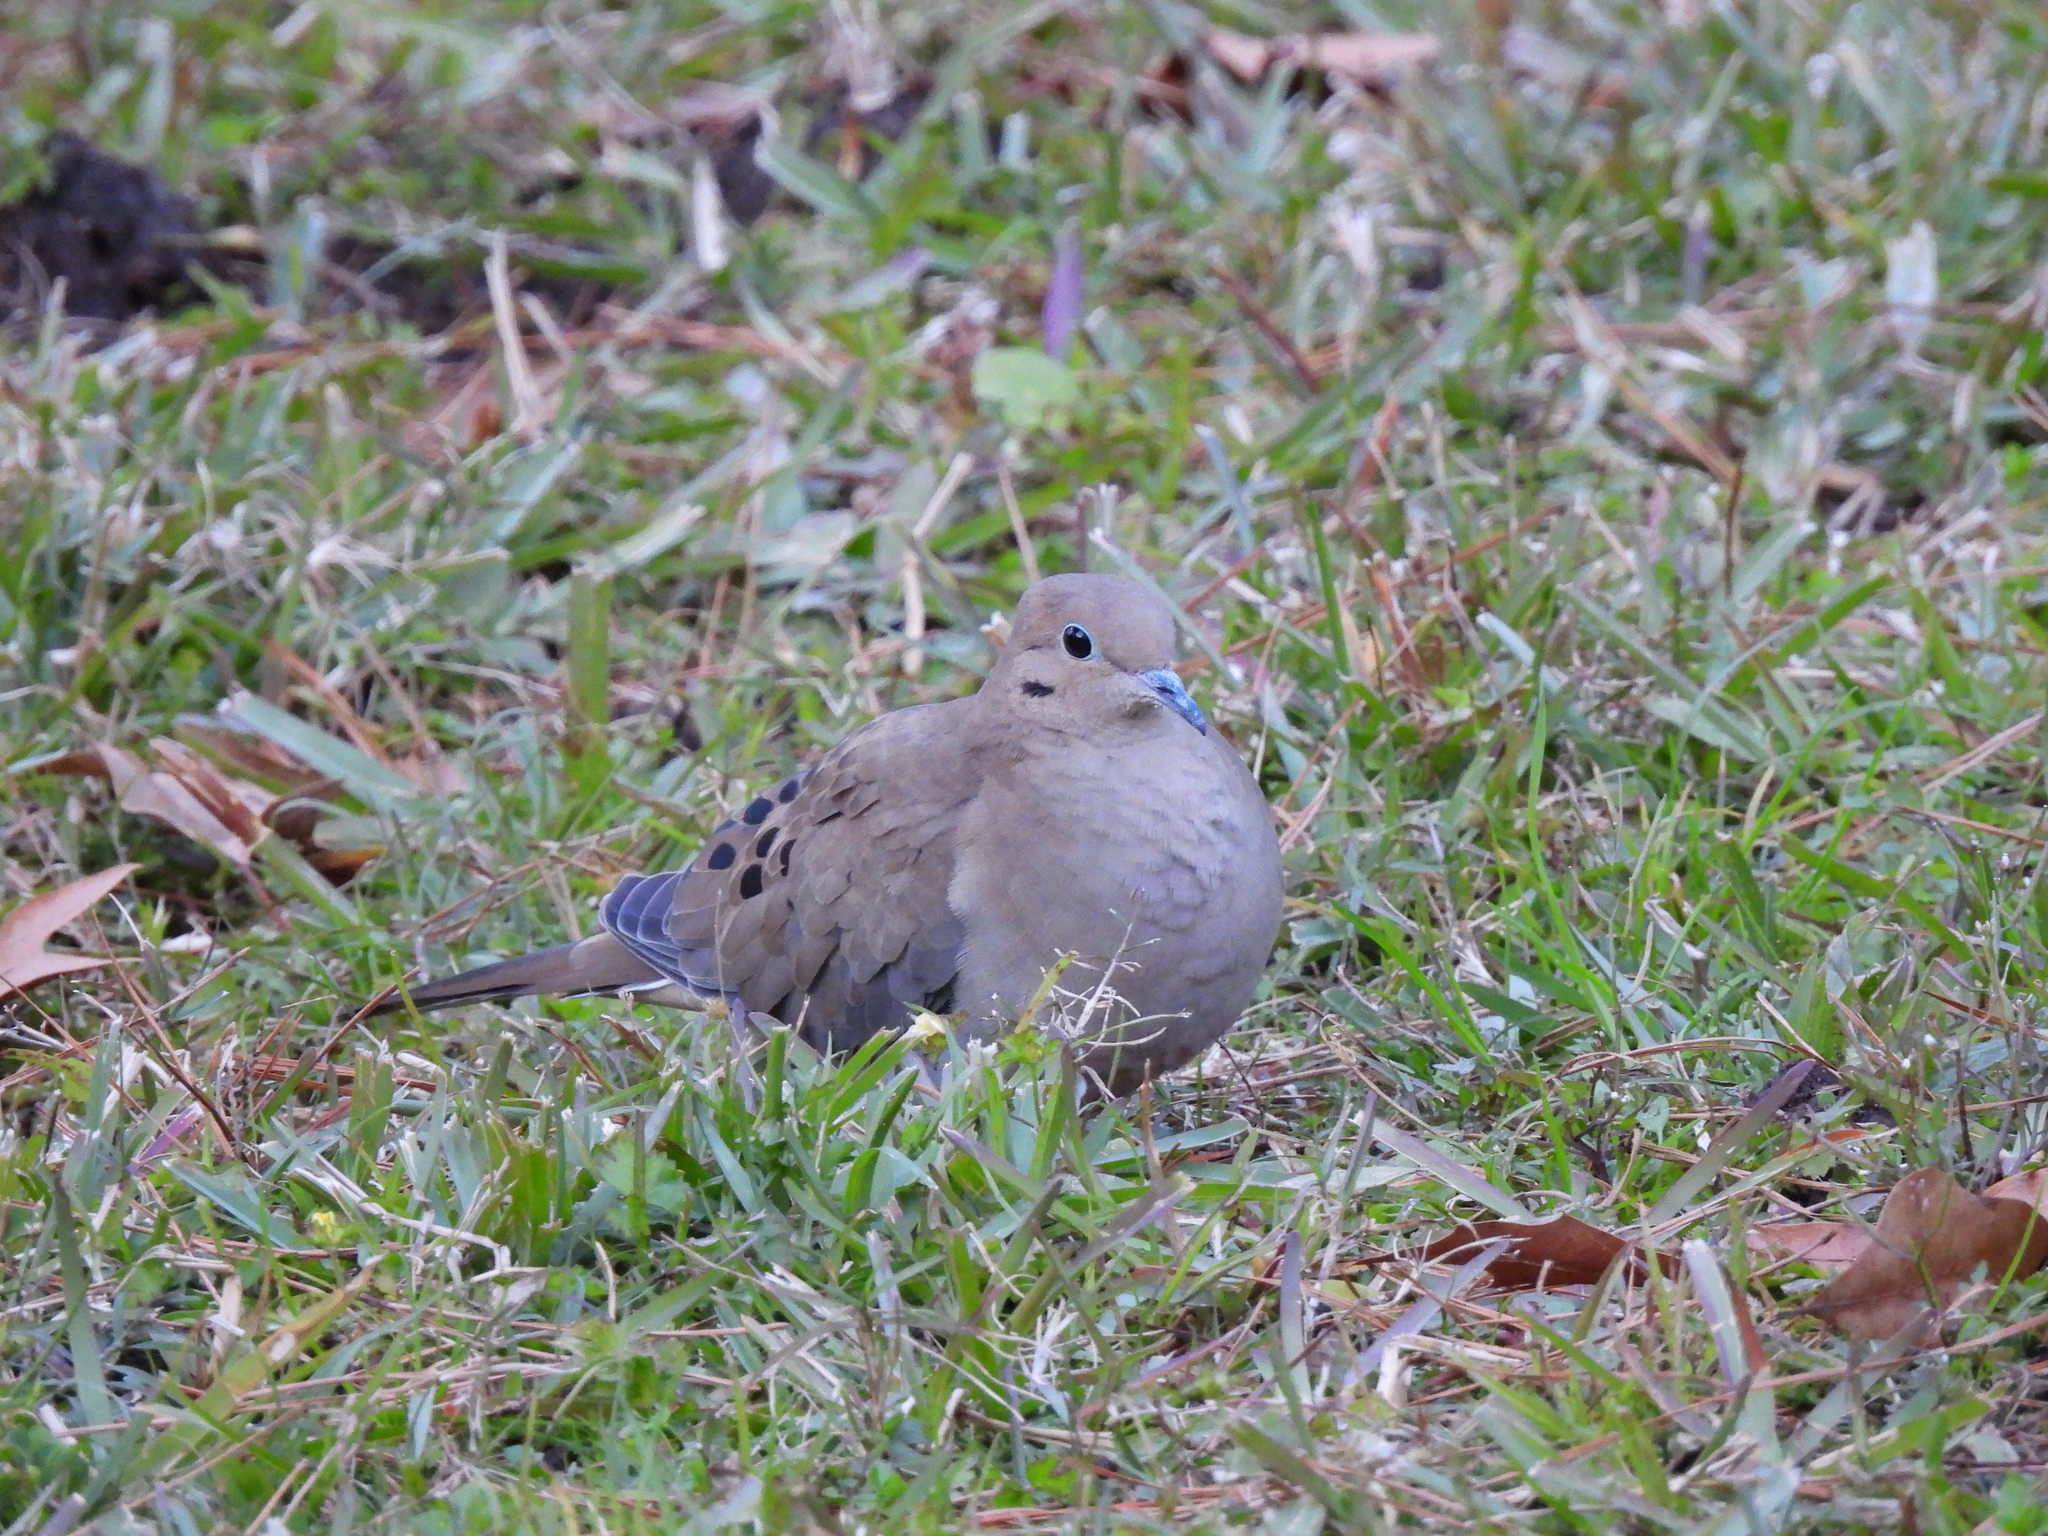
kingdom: Animalia
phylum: Chordata
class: Aves
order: Columbiformes
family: Columbidae
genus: Zenaida
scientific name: Zenaida macroura
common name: Mourning dove
